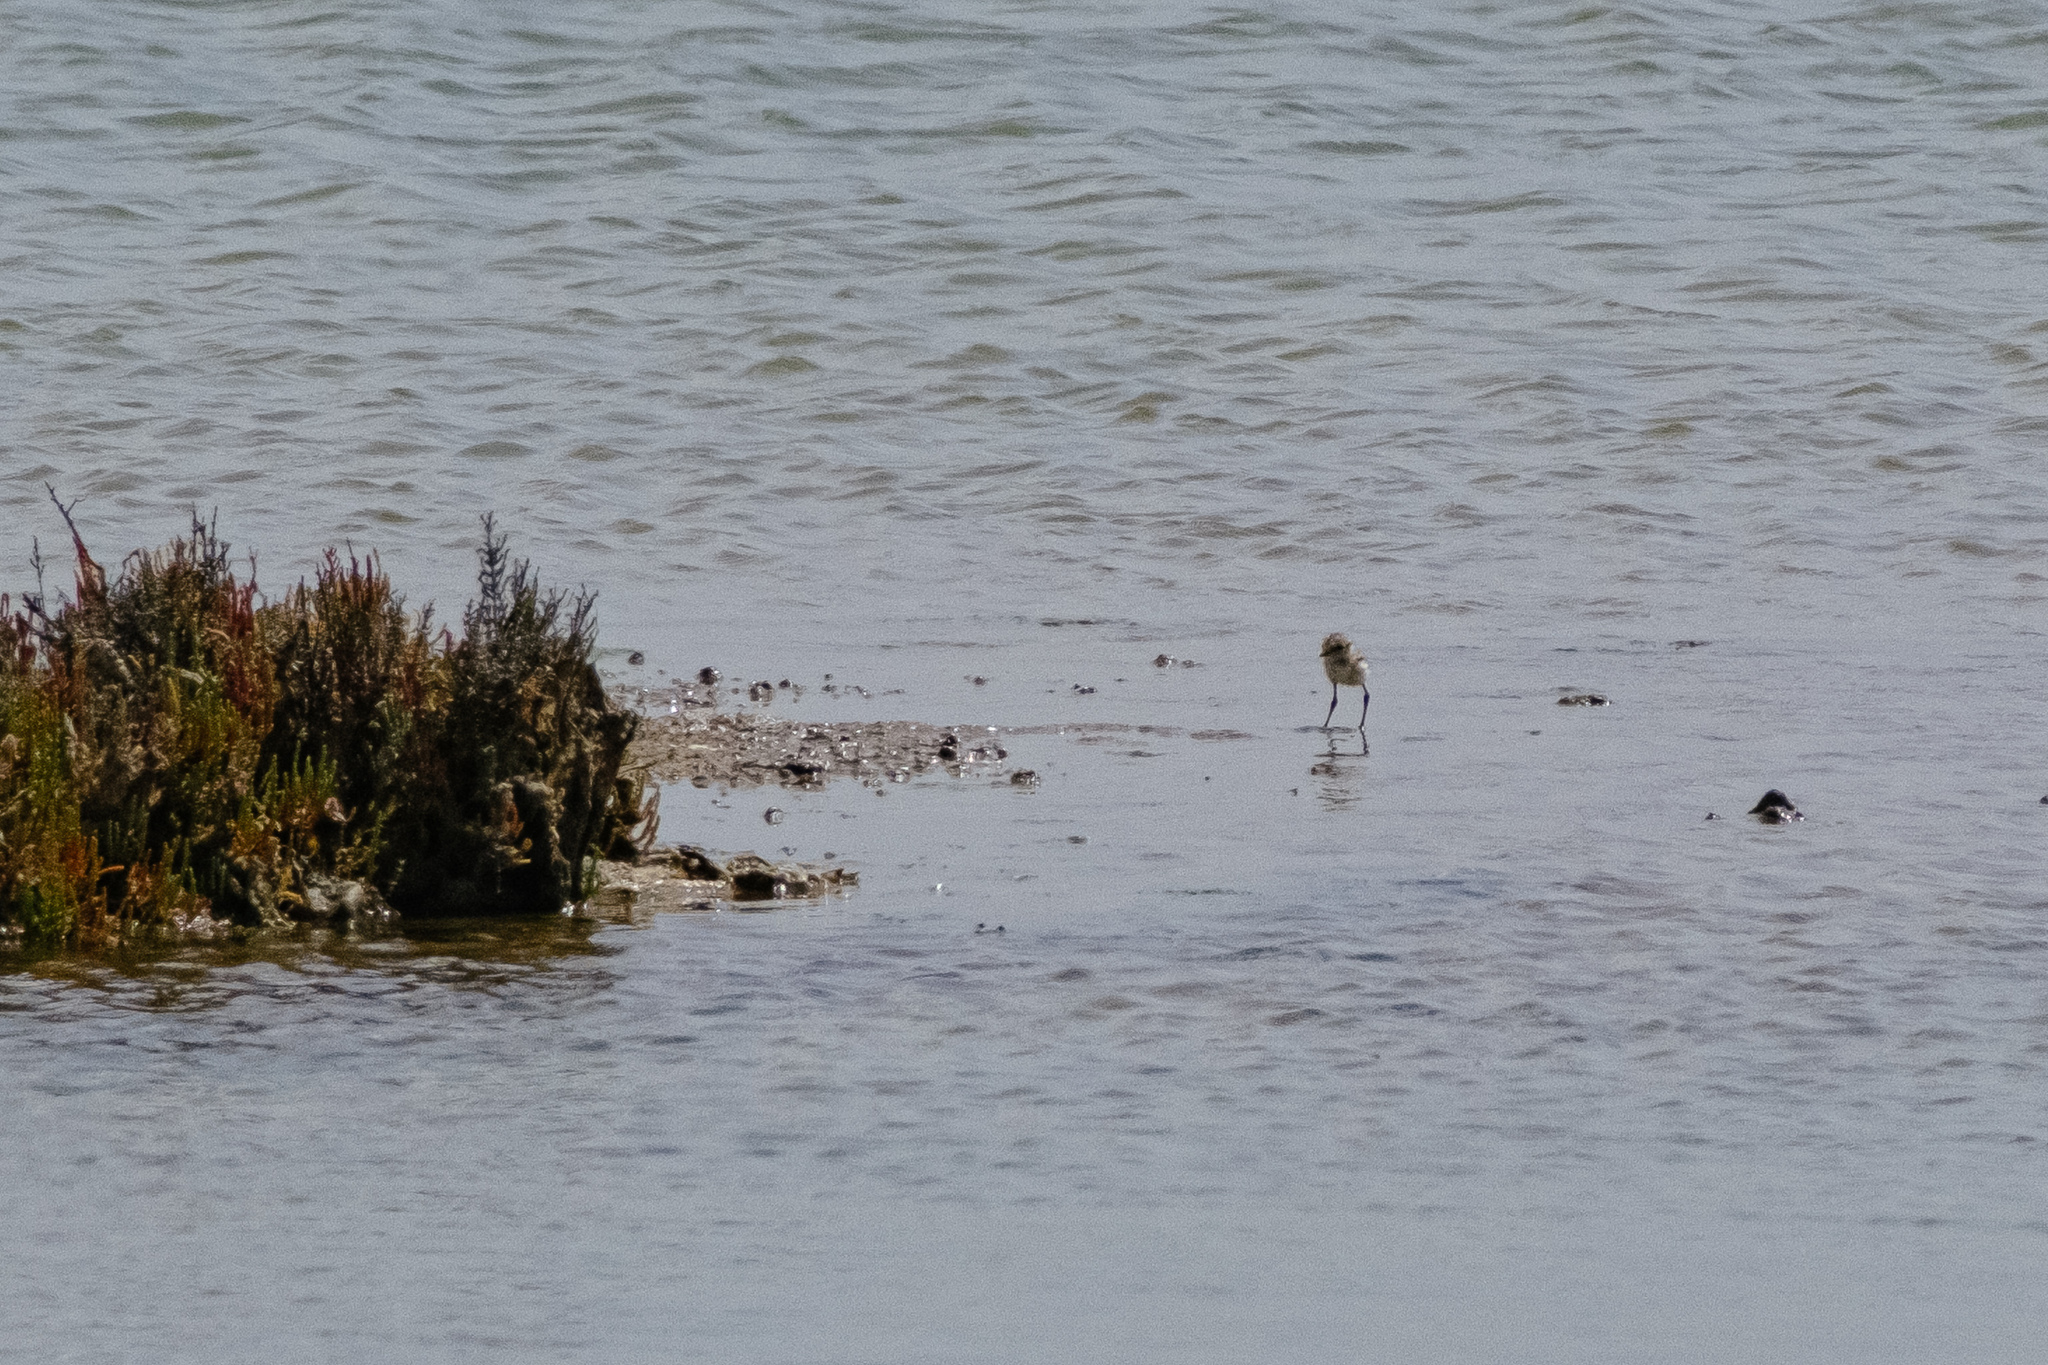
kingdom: Animalia
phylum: Chordata
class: Aves
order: Charadriiformes
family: Charadriidae
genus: Charadrius
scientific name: Charadrius alexandrinus
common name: Kentish plover
